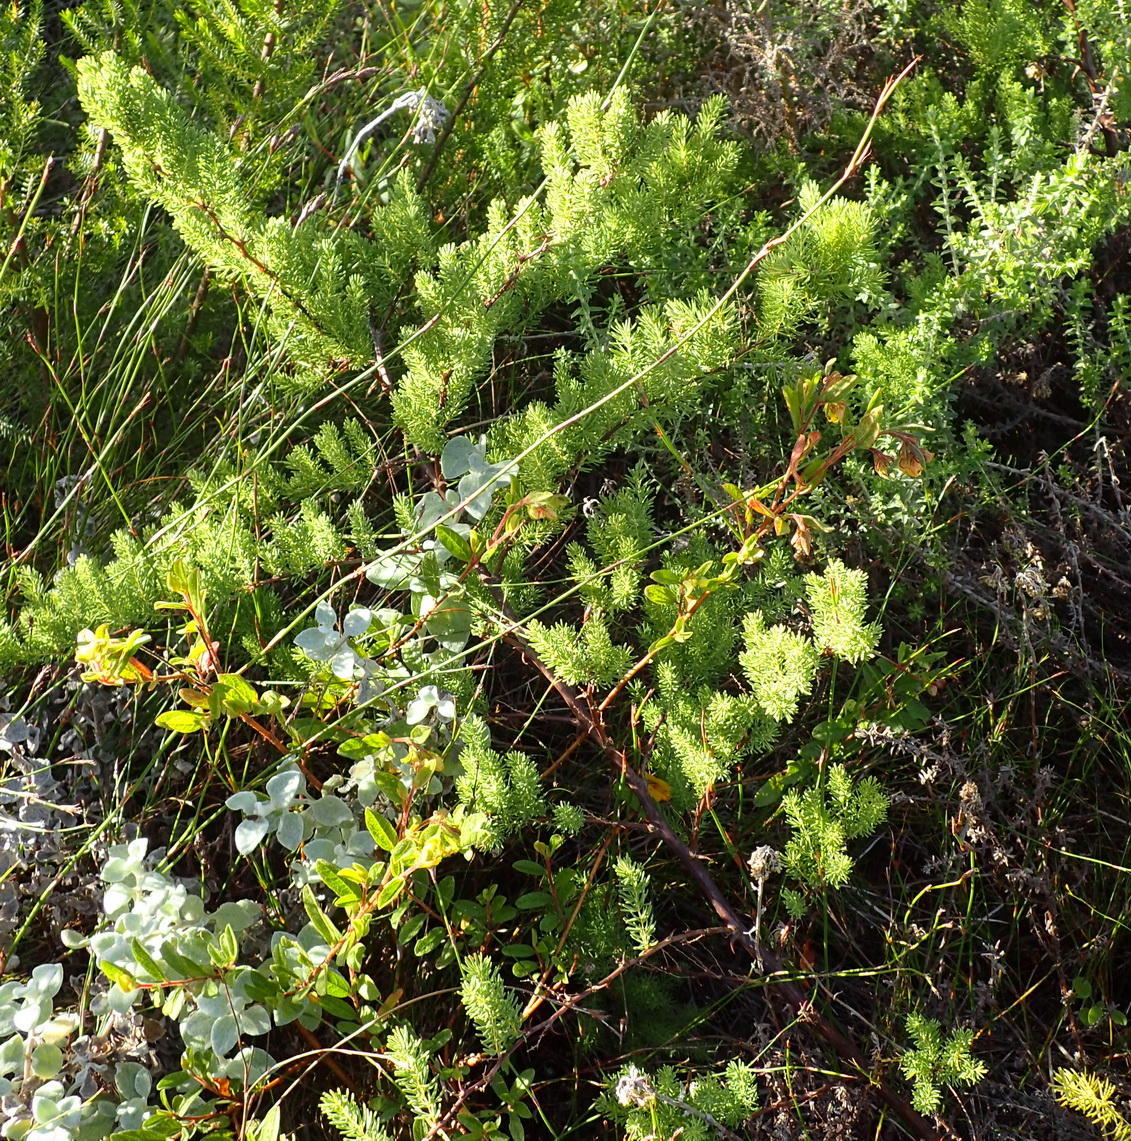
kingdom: Plantae
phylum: Tracheophyta
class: Liliopsida
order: Asparagales
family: Asparagaceae
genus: Asparagus
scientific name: Asparagus rubicundus
